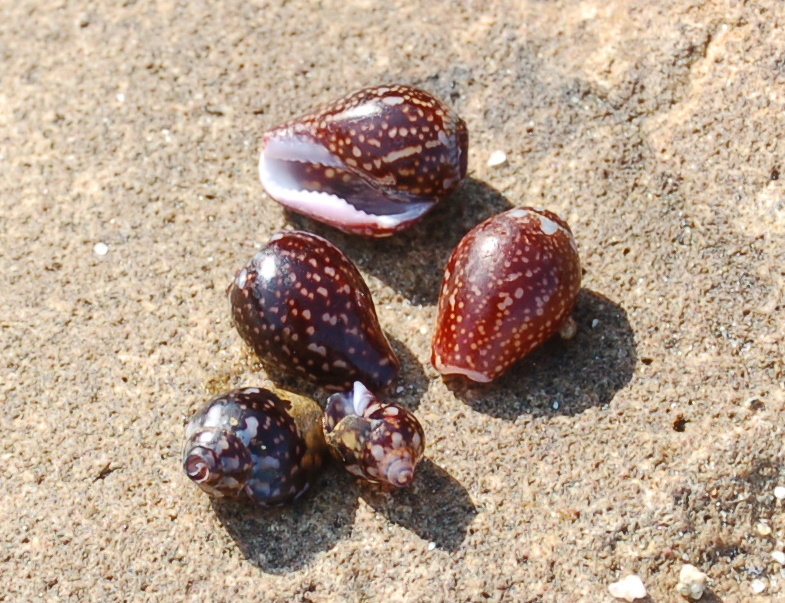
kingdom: Animalia
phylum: Mollusca
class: Gastropoda
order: Neogastropoda
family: Columbellidae
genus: Columbella
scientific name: Columbella fuscata
